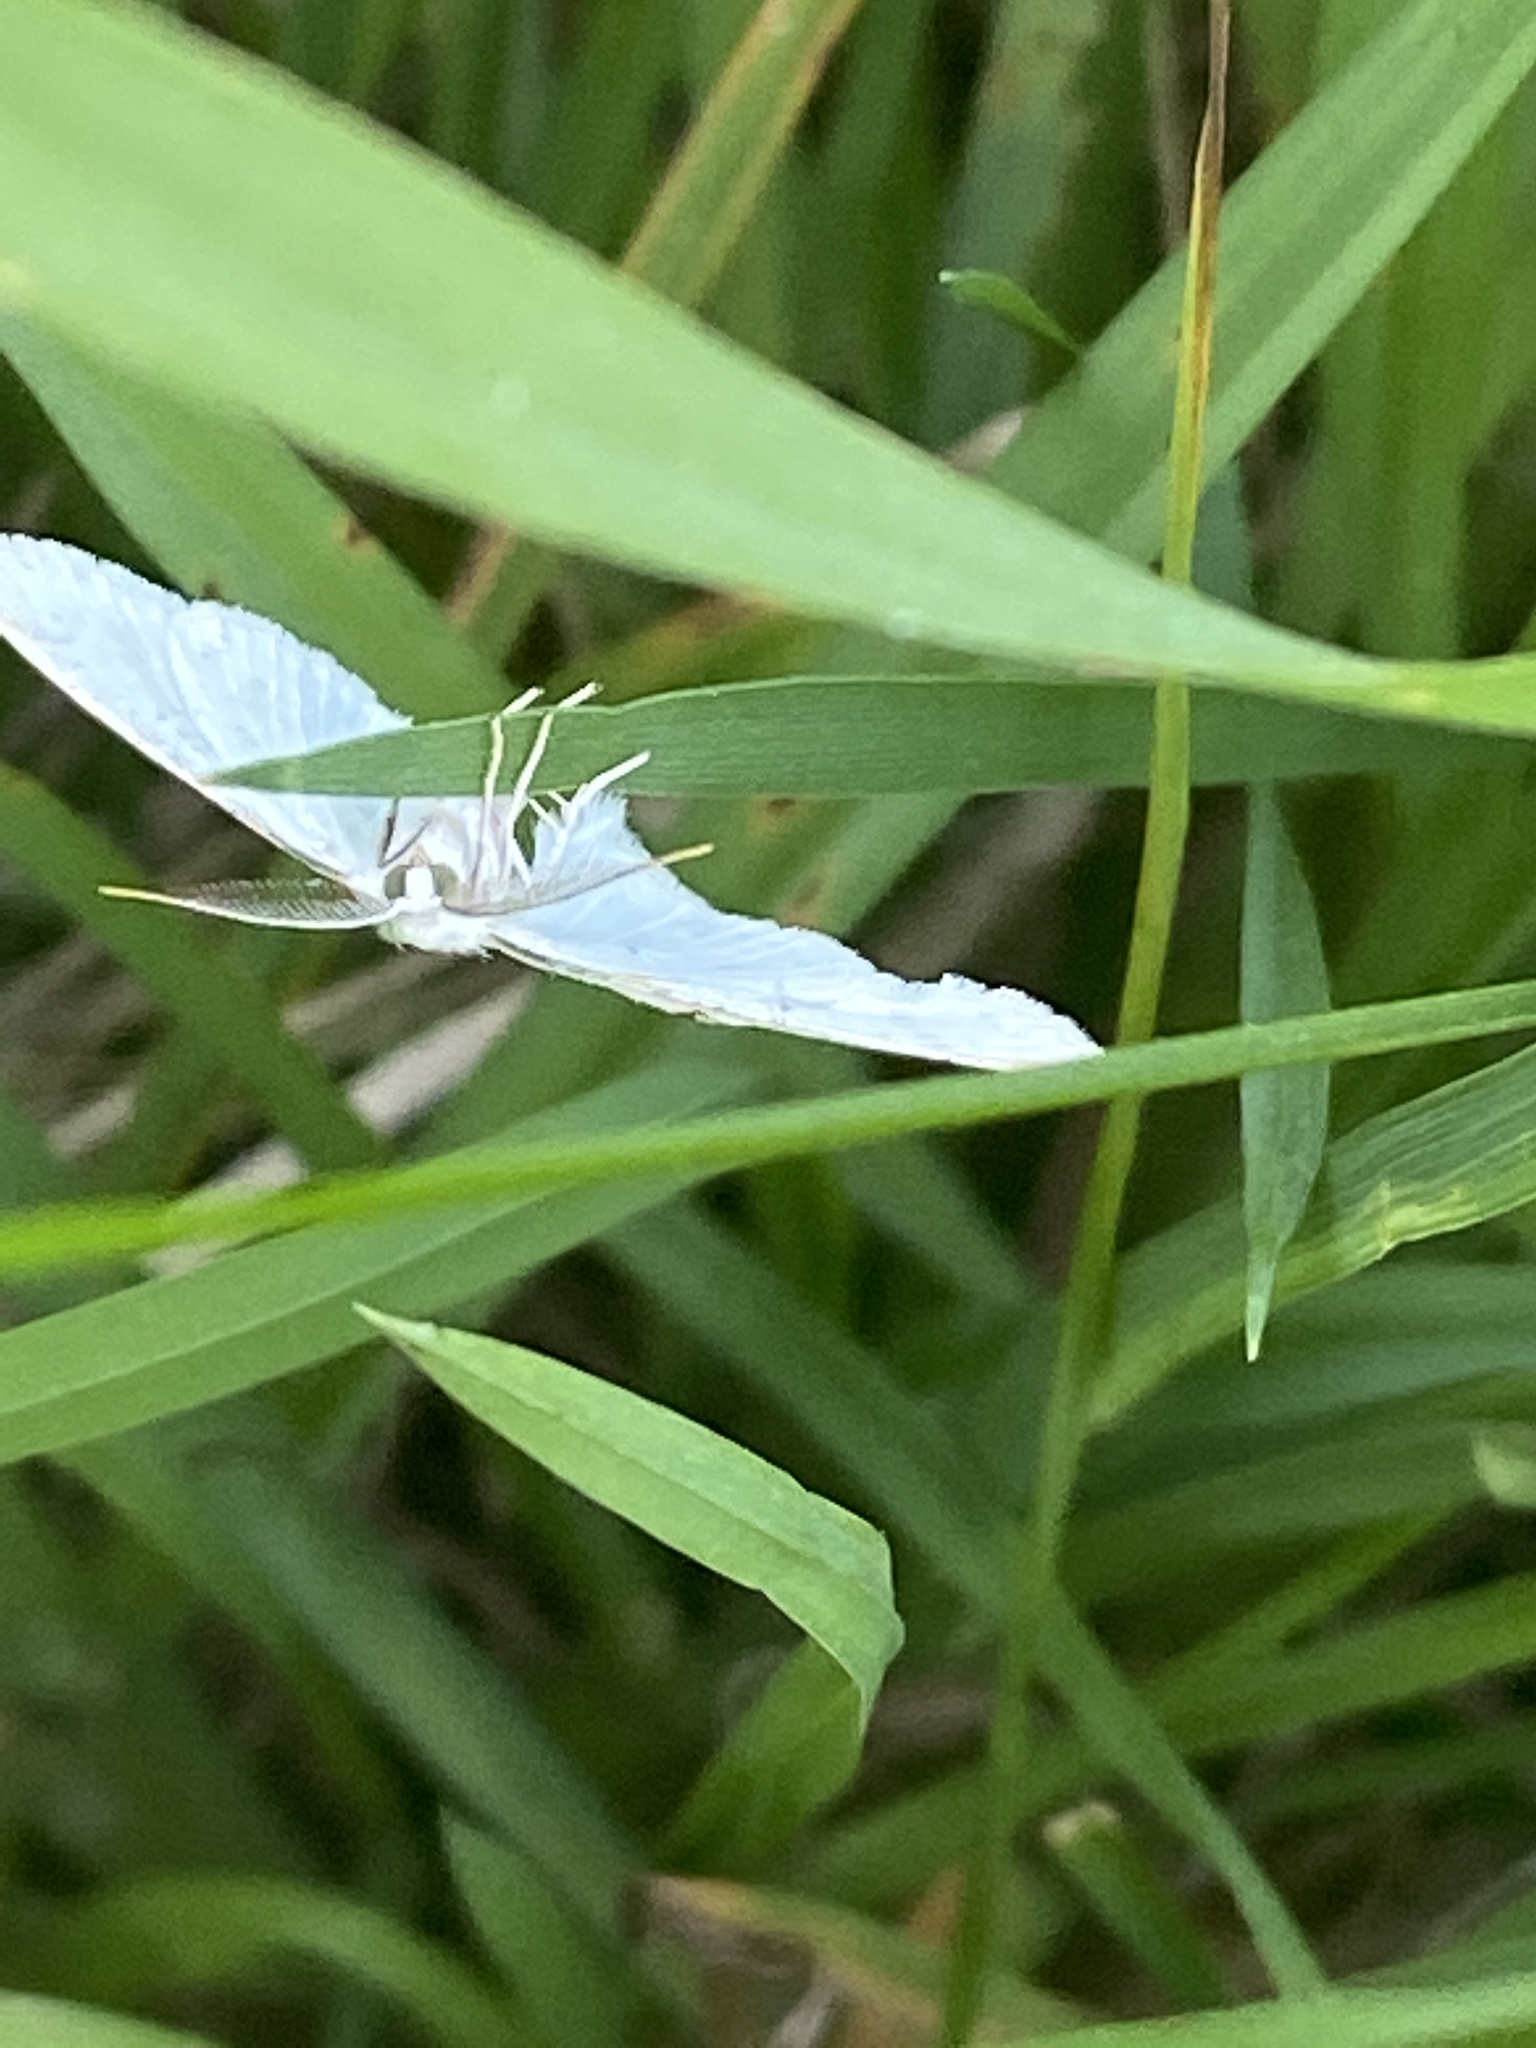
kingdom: Animalia
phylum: Arthropoda
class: Insecta
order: Lepidoptera
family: Geometridae
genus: Cabera
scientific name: Cabera pusaria
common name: Common white wave
